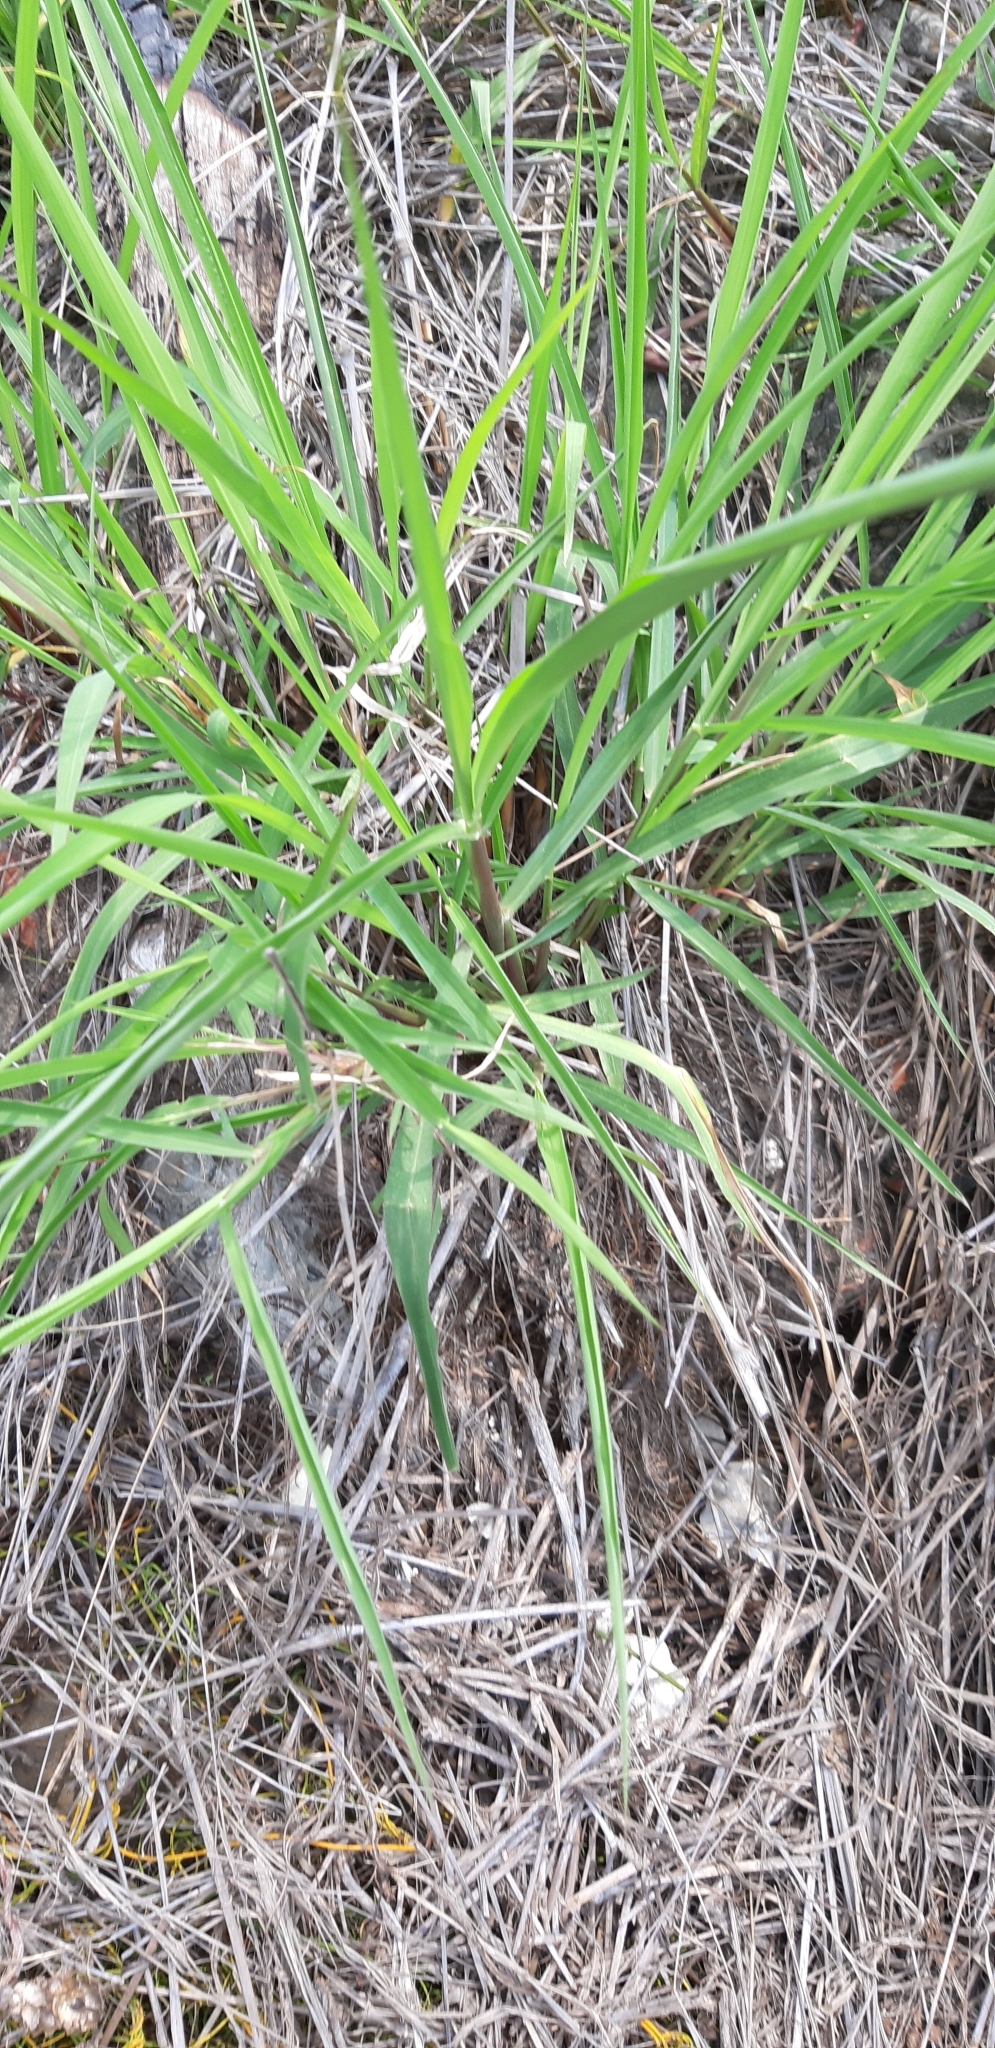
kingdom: Plantae
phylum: Tracheophyta
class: Liliopsida
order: Poales
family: Poaceae
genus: Urochloa
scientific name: Urochloa mutica
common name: Para grass
